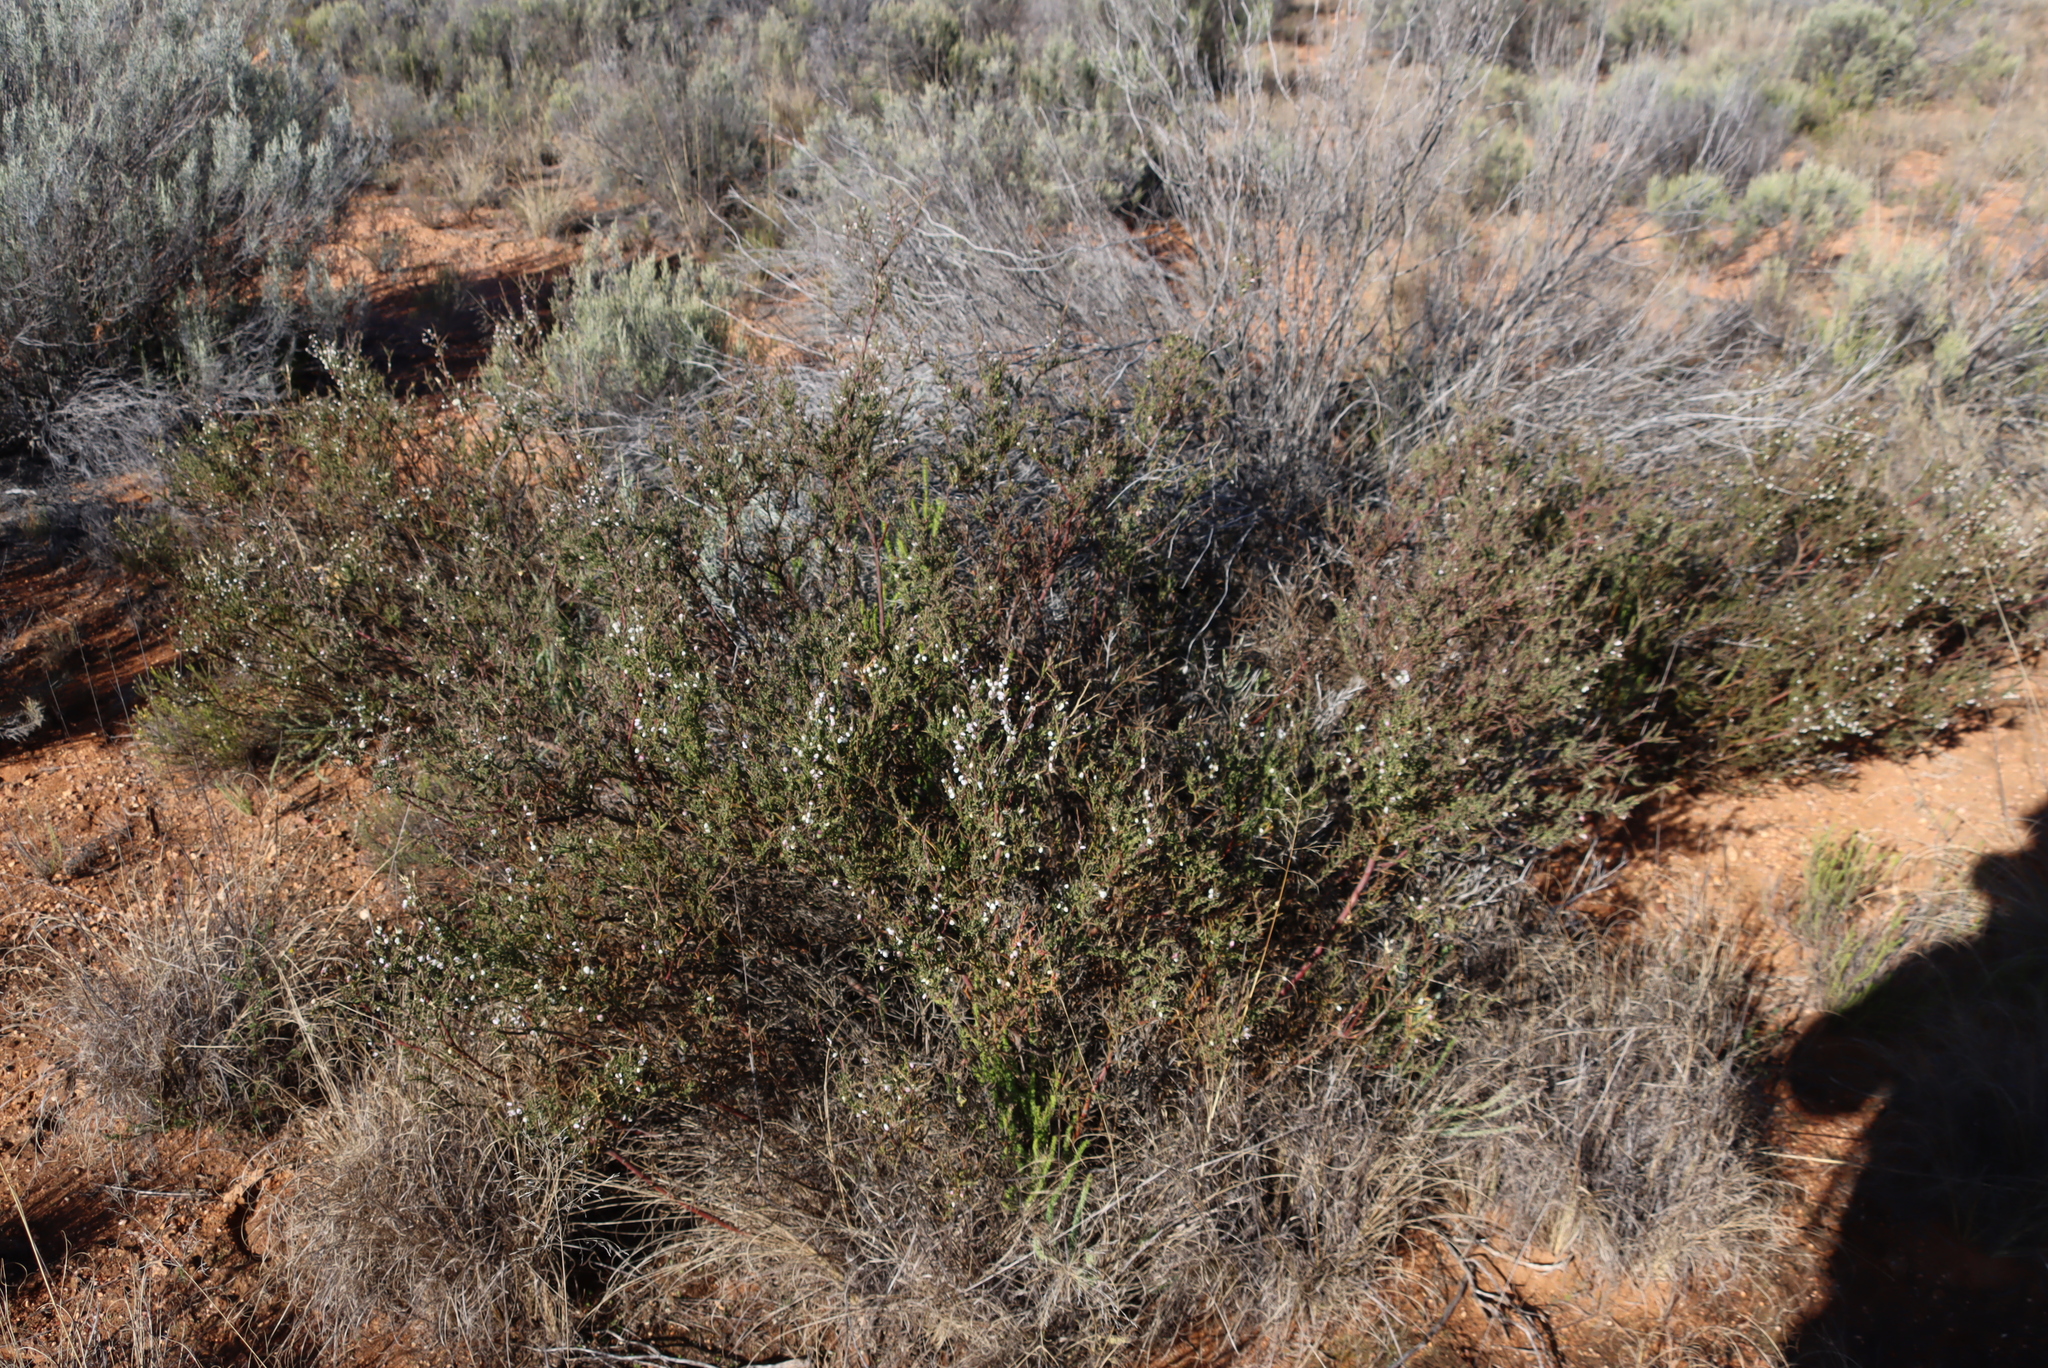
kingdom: Plantae
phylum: Tracheophyta
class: Magnoliopsida
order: Fabales
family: Polygalaceae
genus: Muraltia
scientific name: Muraltia spinosa
